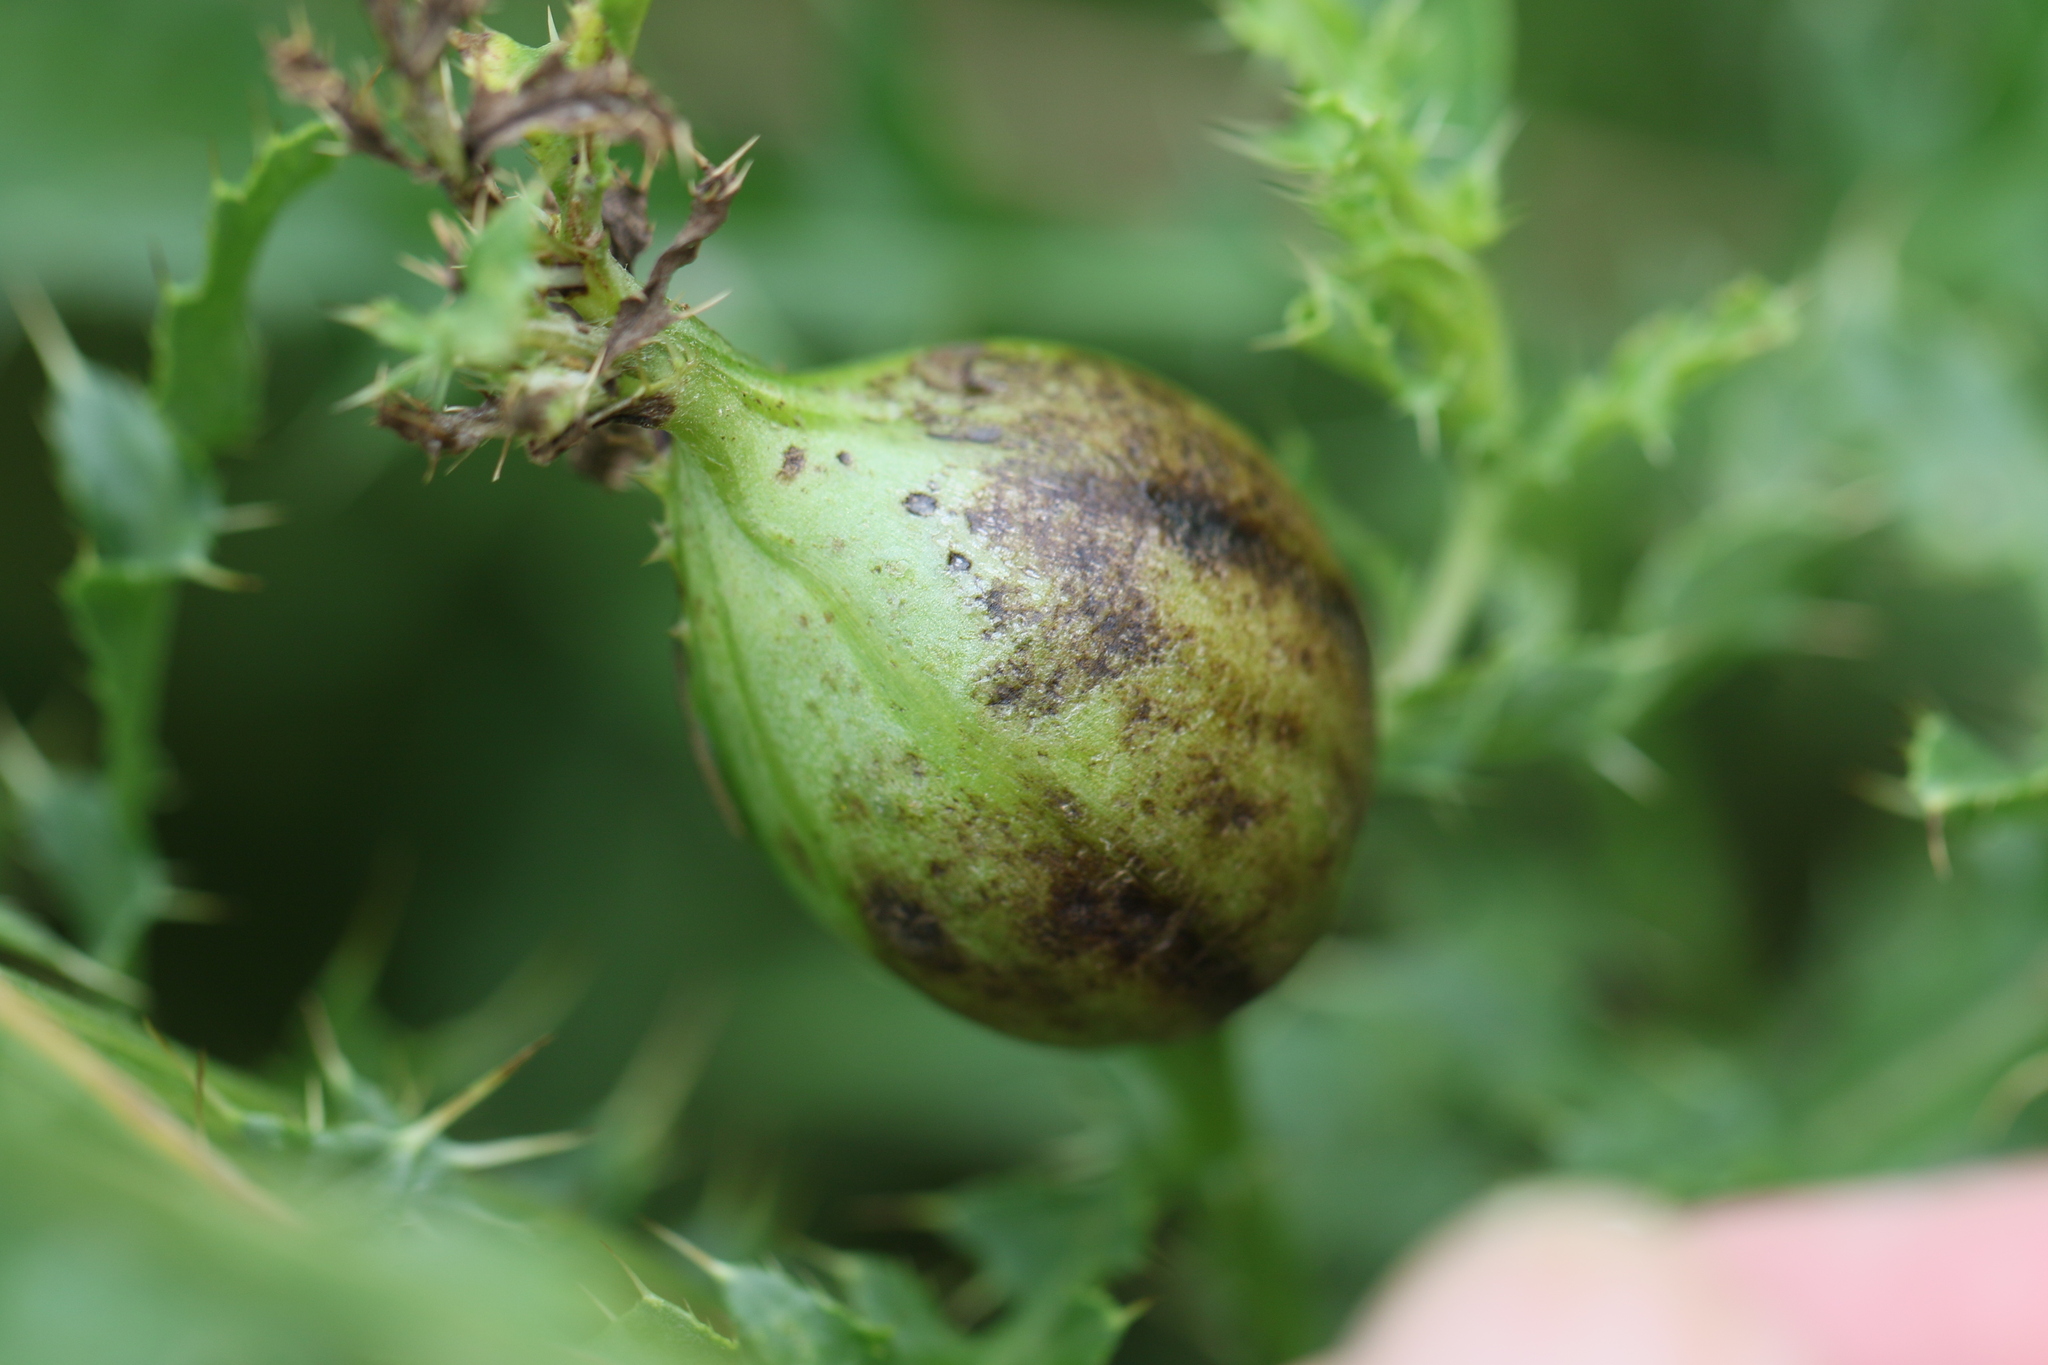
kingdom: Animalia
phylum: Arthropoda
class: Insecta
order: Diptera
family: Tephritidae
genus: Urophora
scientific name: Urophora cardui
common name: Fruit fly
